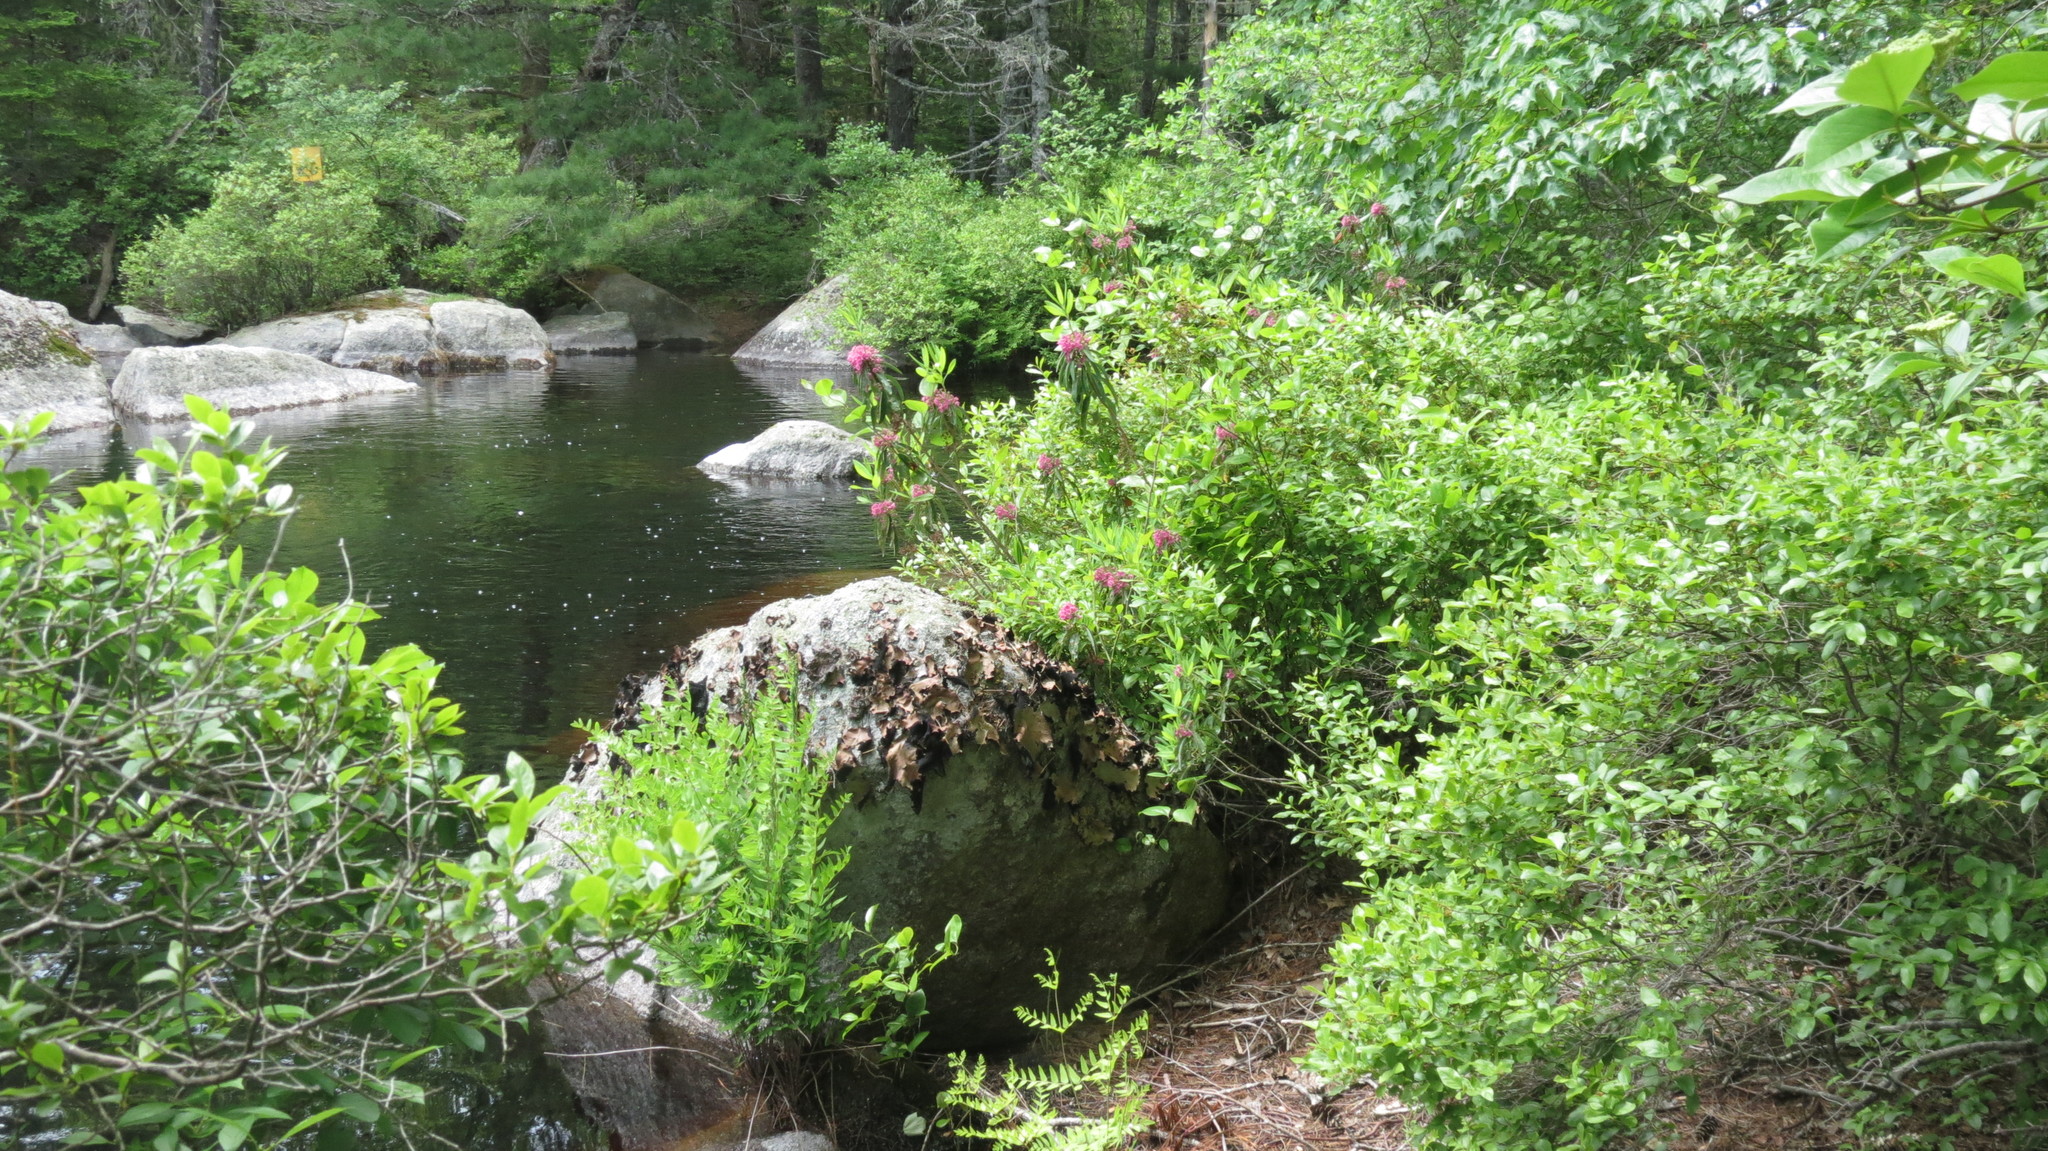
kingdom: Fungi
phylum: Ascomycota
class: Lecanoromycetes
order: Umbilicariales
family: Umbilicariaceae
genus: Umbilicaria
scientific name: Umbilicaria mammulata
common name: Smooth rock tripe
